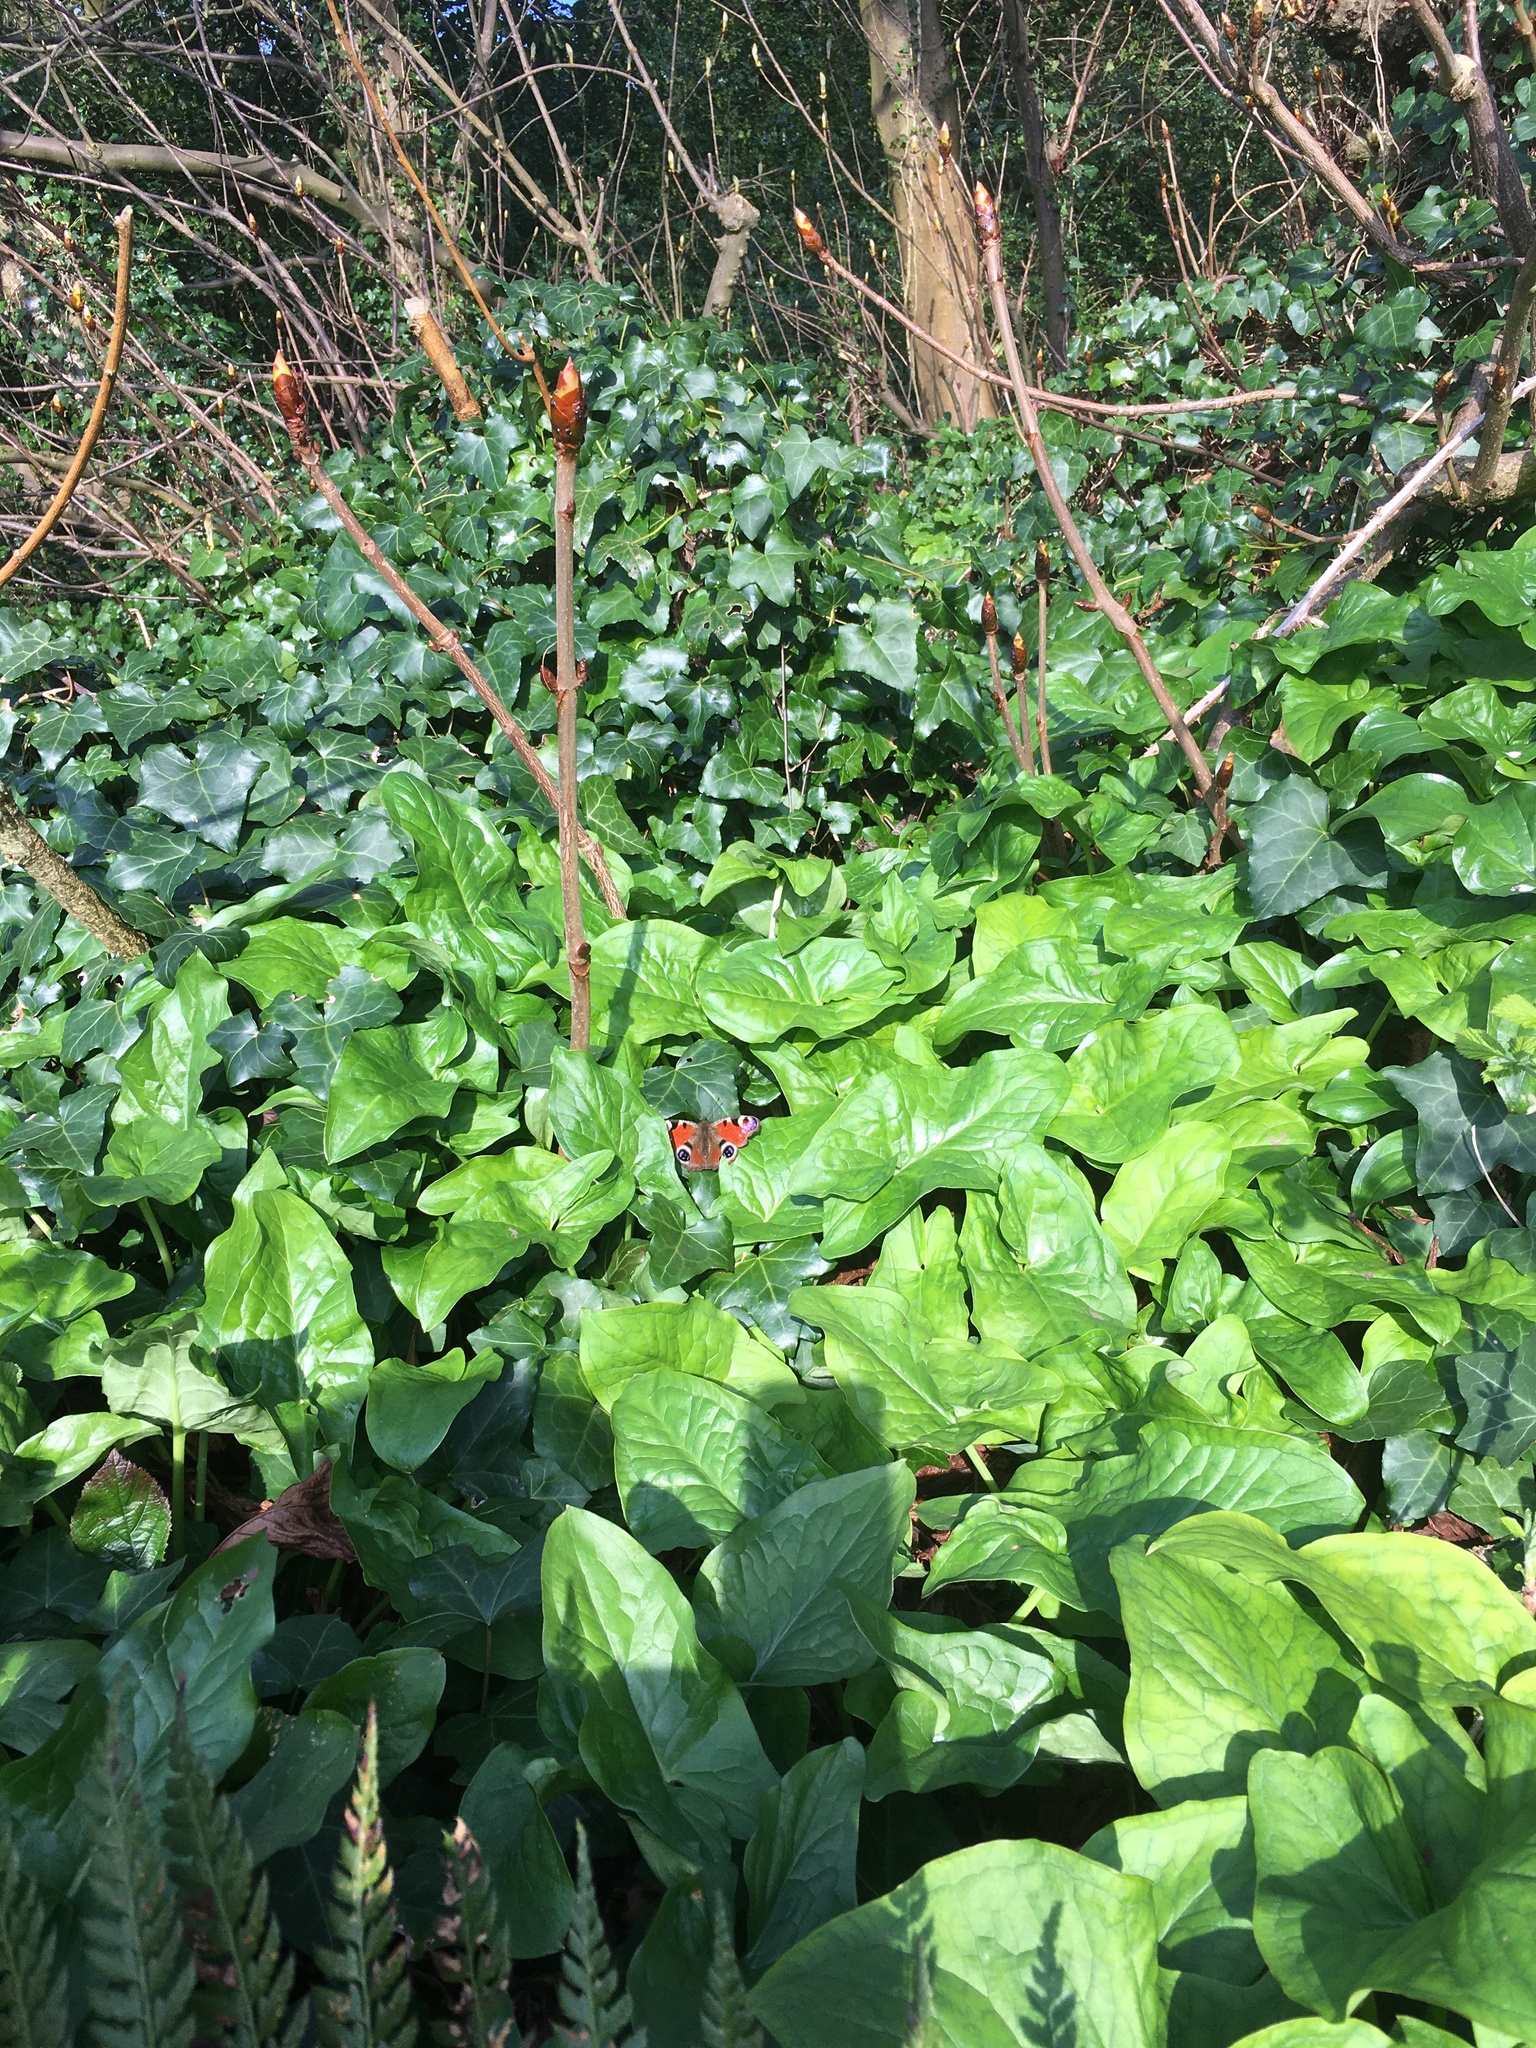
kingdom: Animalia
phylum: Arthropoda
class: Insecta
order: Lepidoptera
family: Nymphalidae
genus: Aglais
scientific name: Aglais io
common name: Peacock
